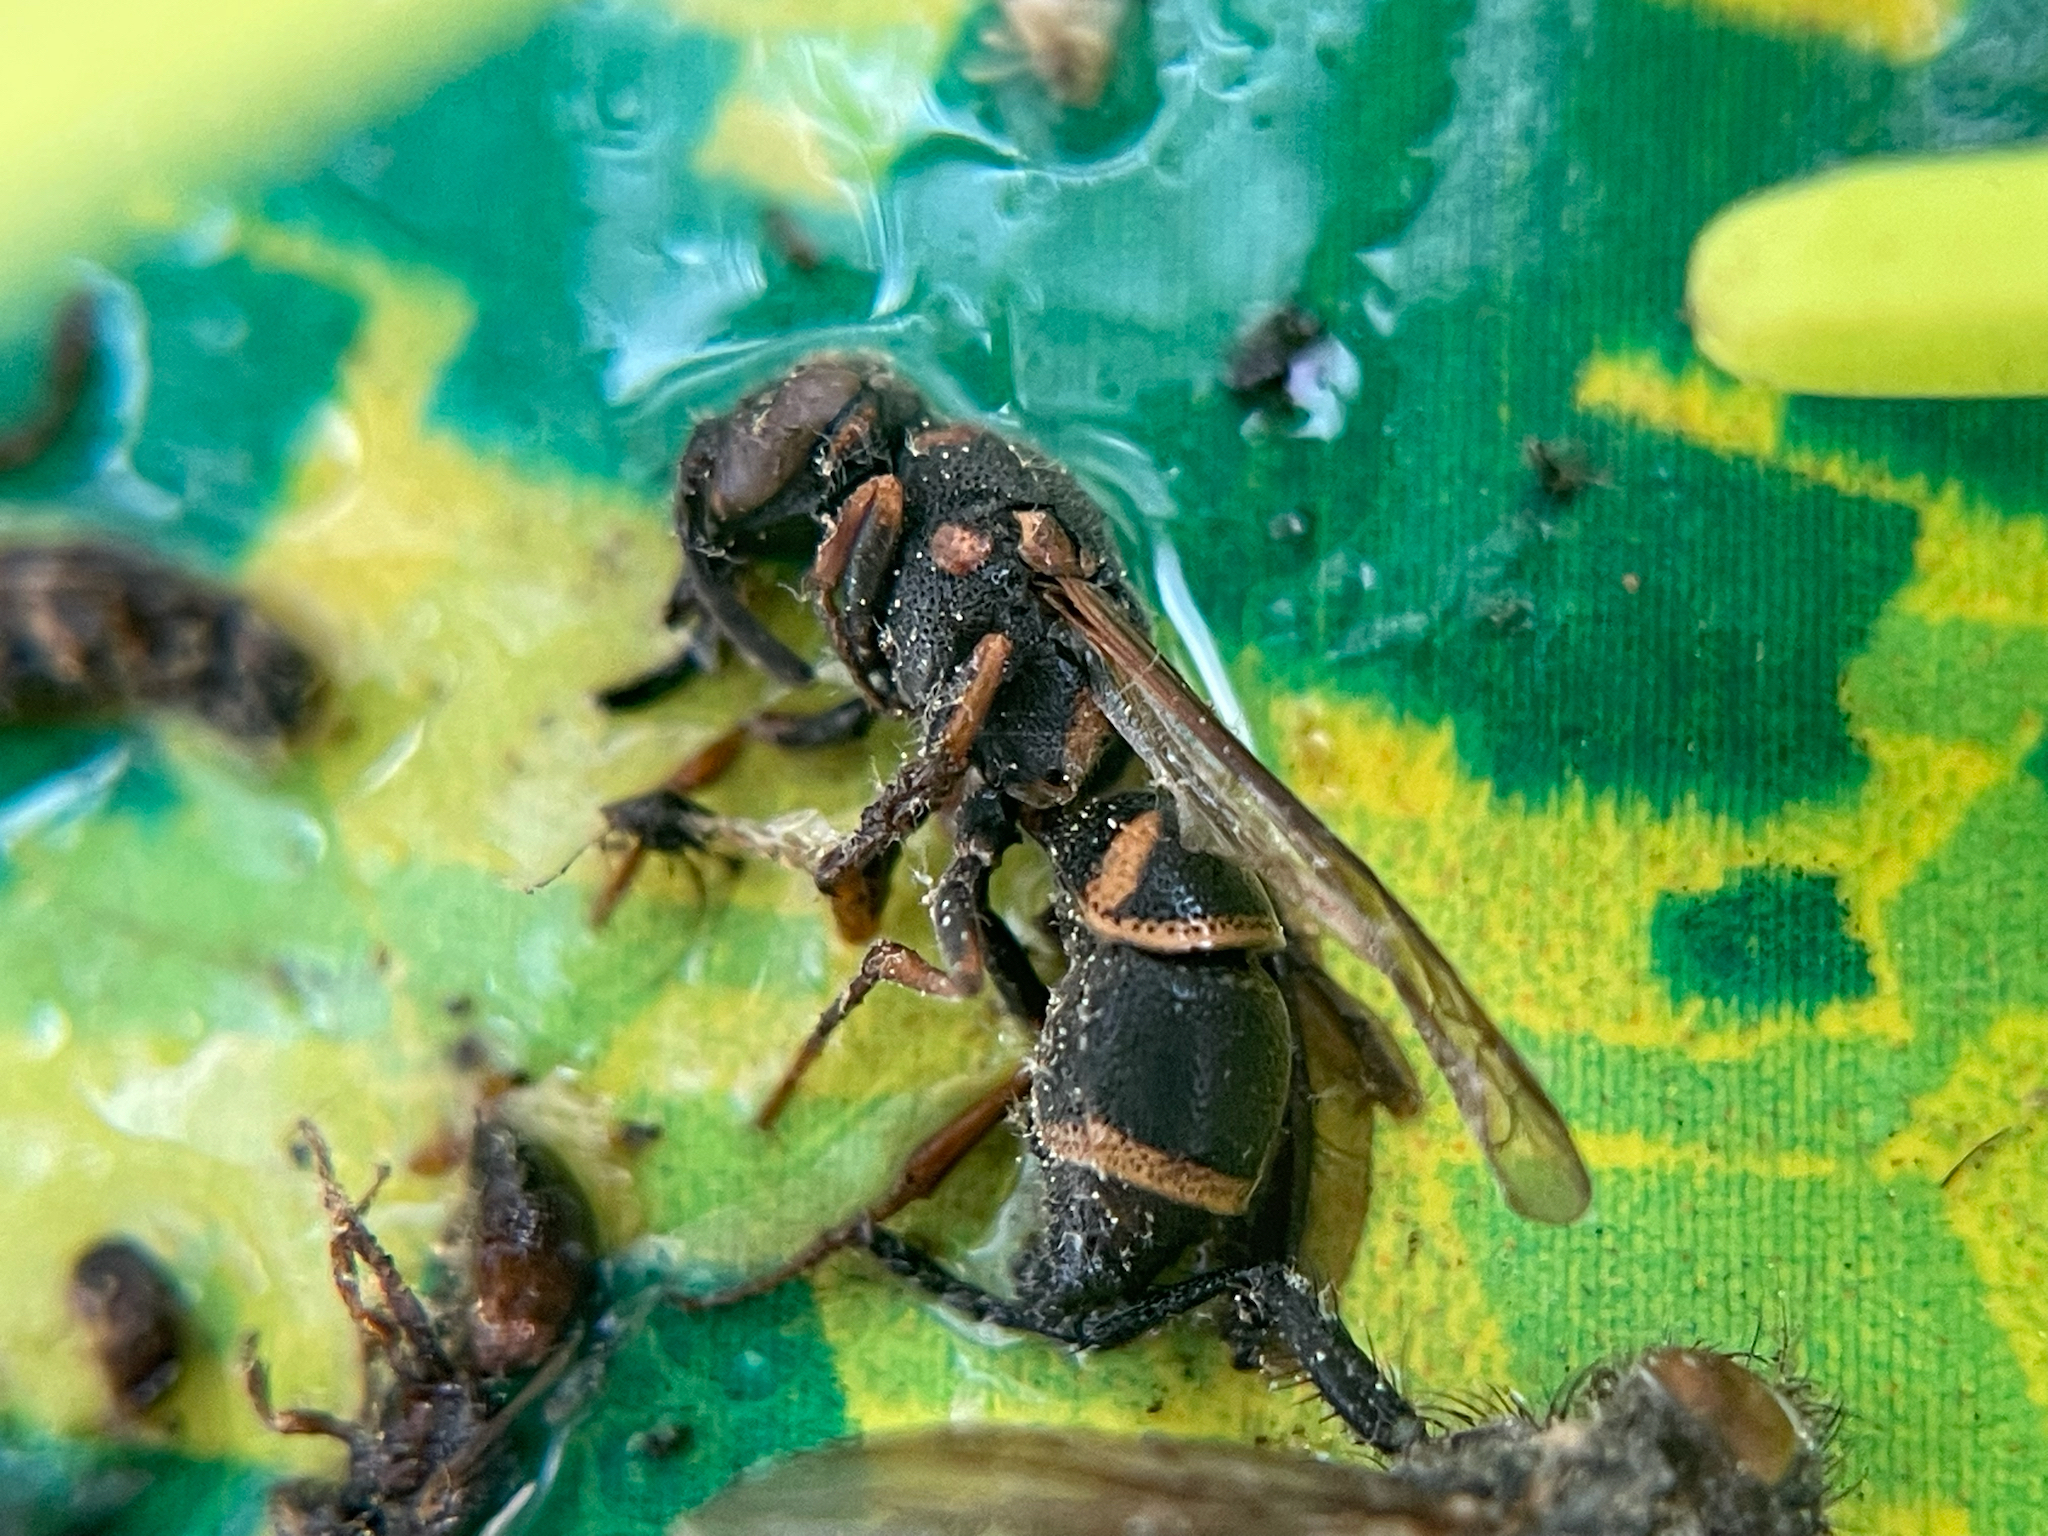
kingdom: Animalia
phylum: Arthropoda
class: Insecta
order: Hymenoptera
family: Eumenidae
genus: Parancistrocerus
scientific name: Parancistrocerus fulvipes
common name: Potter wasp
